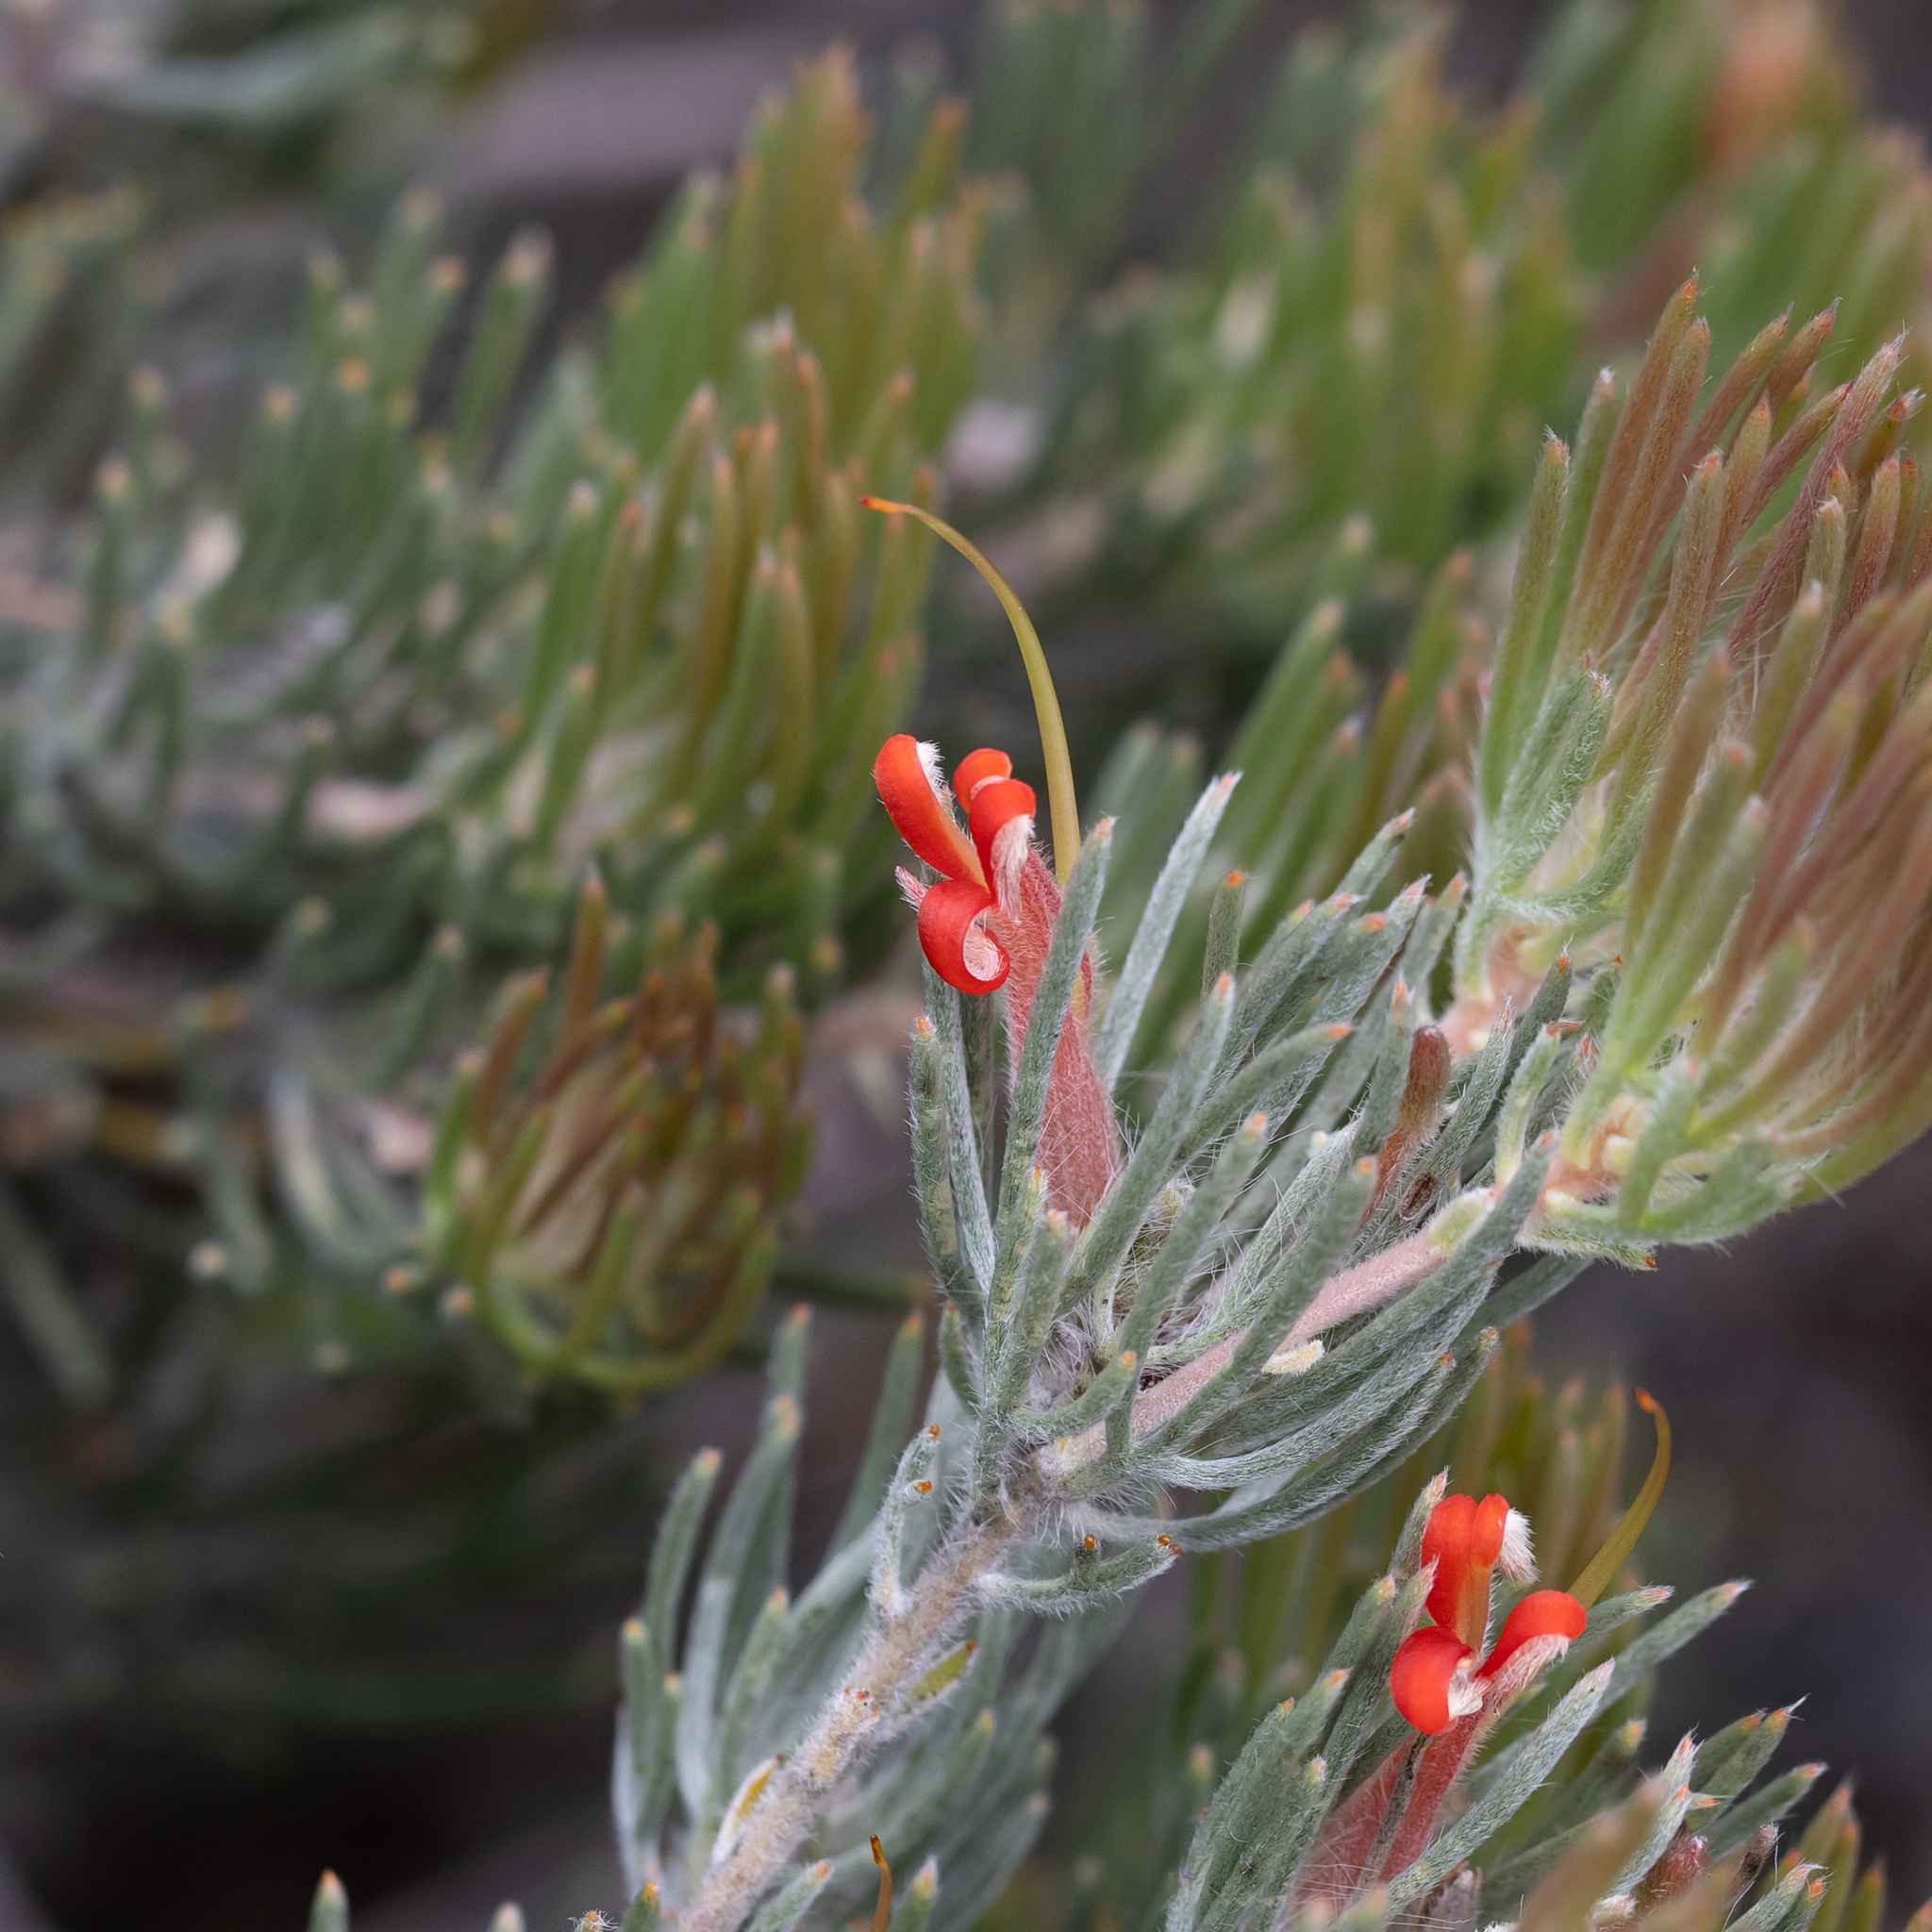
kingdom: Plantae
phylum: Tracheophyta
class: Magnoliopsida
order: Proteales
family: Proteaceae
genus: Adenanthos
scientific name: Adenanthos oreophilus
